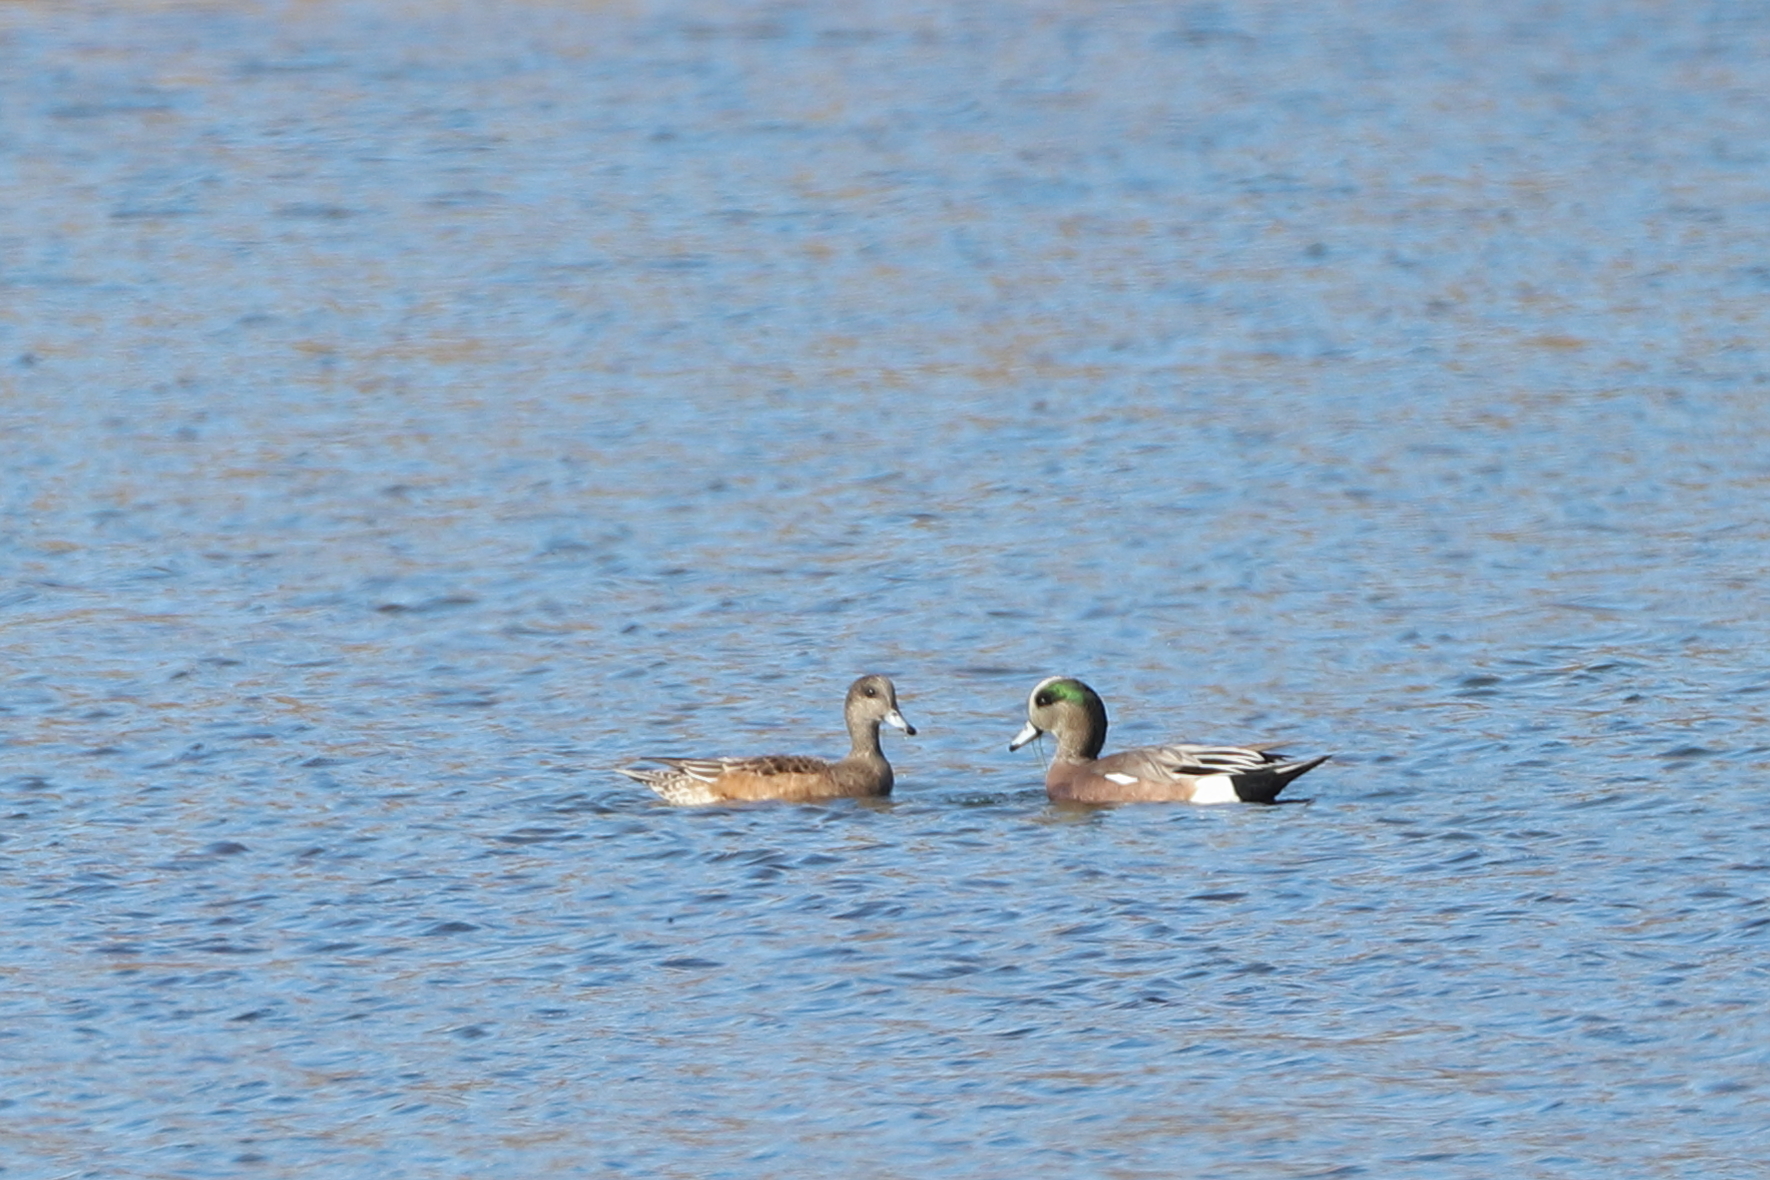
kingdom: Animalia
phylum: Chordata
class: Aves
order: Anseriformes
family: Anatidae
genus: Mareca
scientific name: Mareca americana
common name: American wigeon
